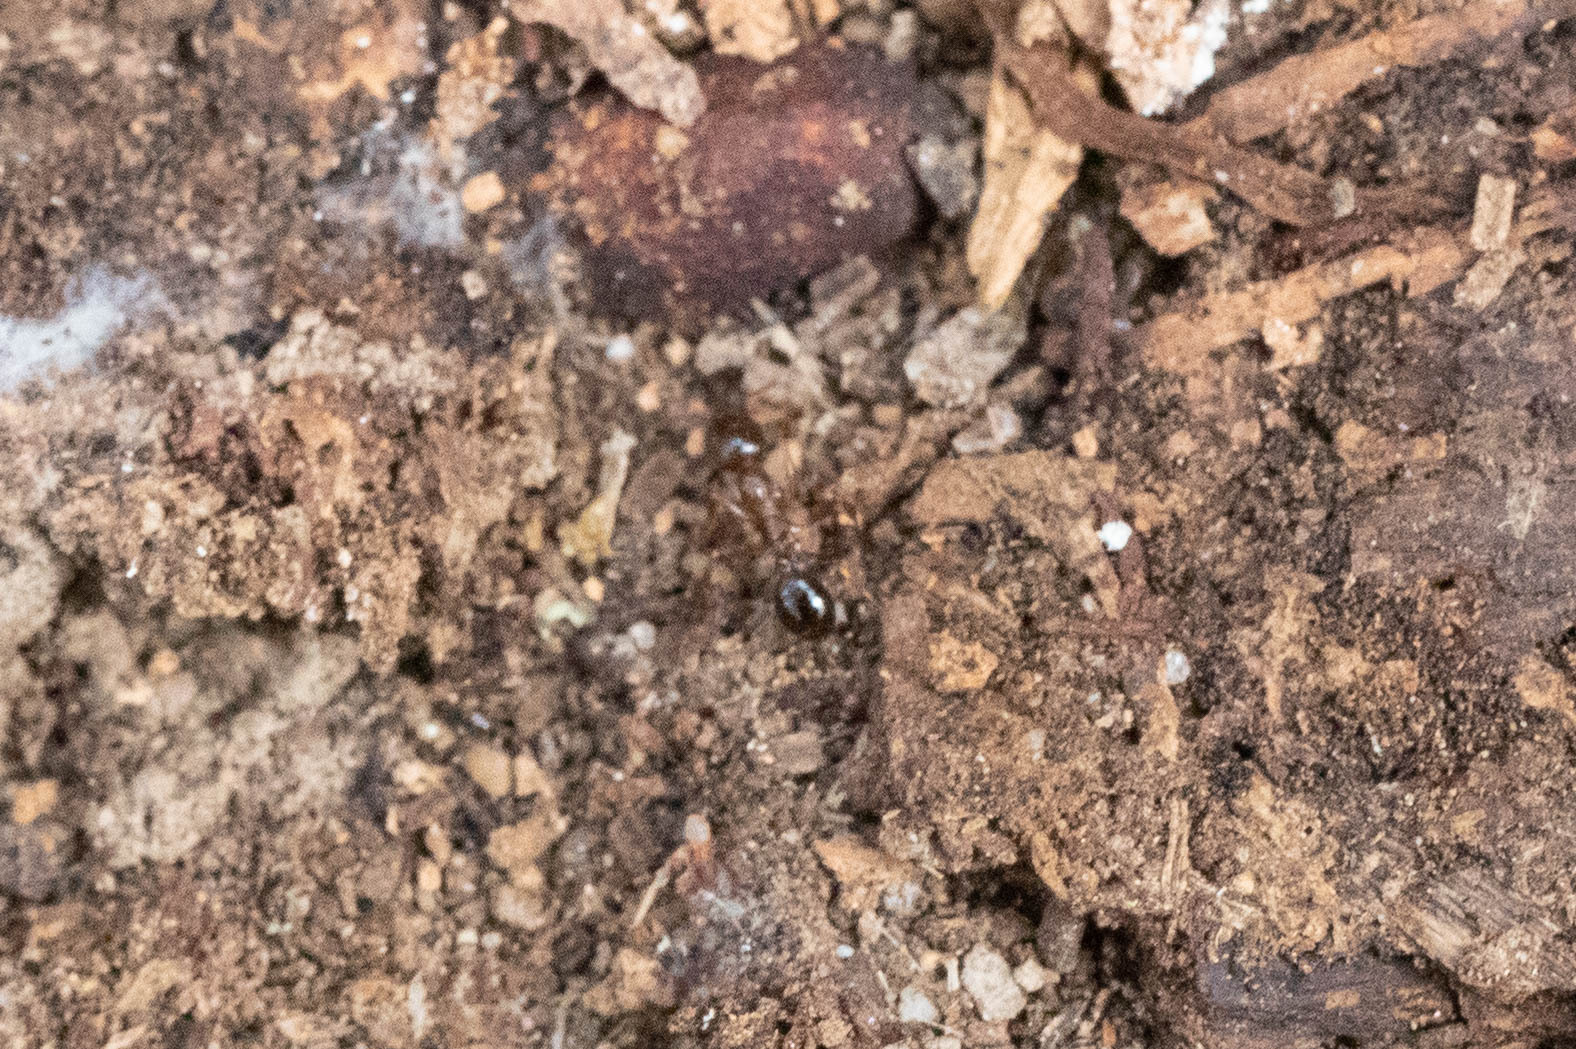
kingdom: Animalia
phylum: Arthropoda
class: Insecta
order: Hymenoptera
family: Formicidae
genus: Aphaenogaster
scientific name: Aphaenogaster occidentalis
